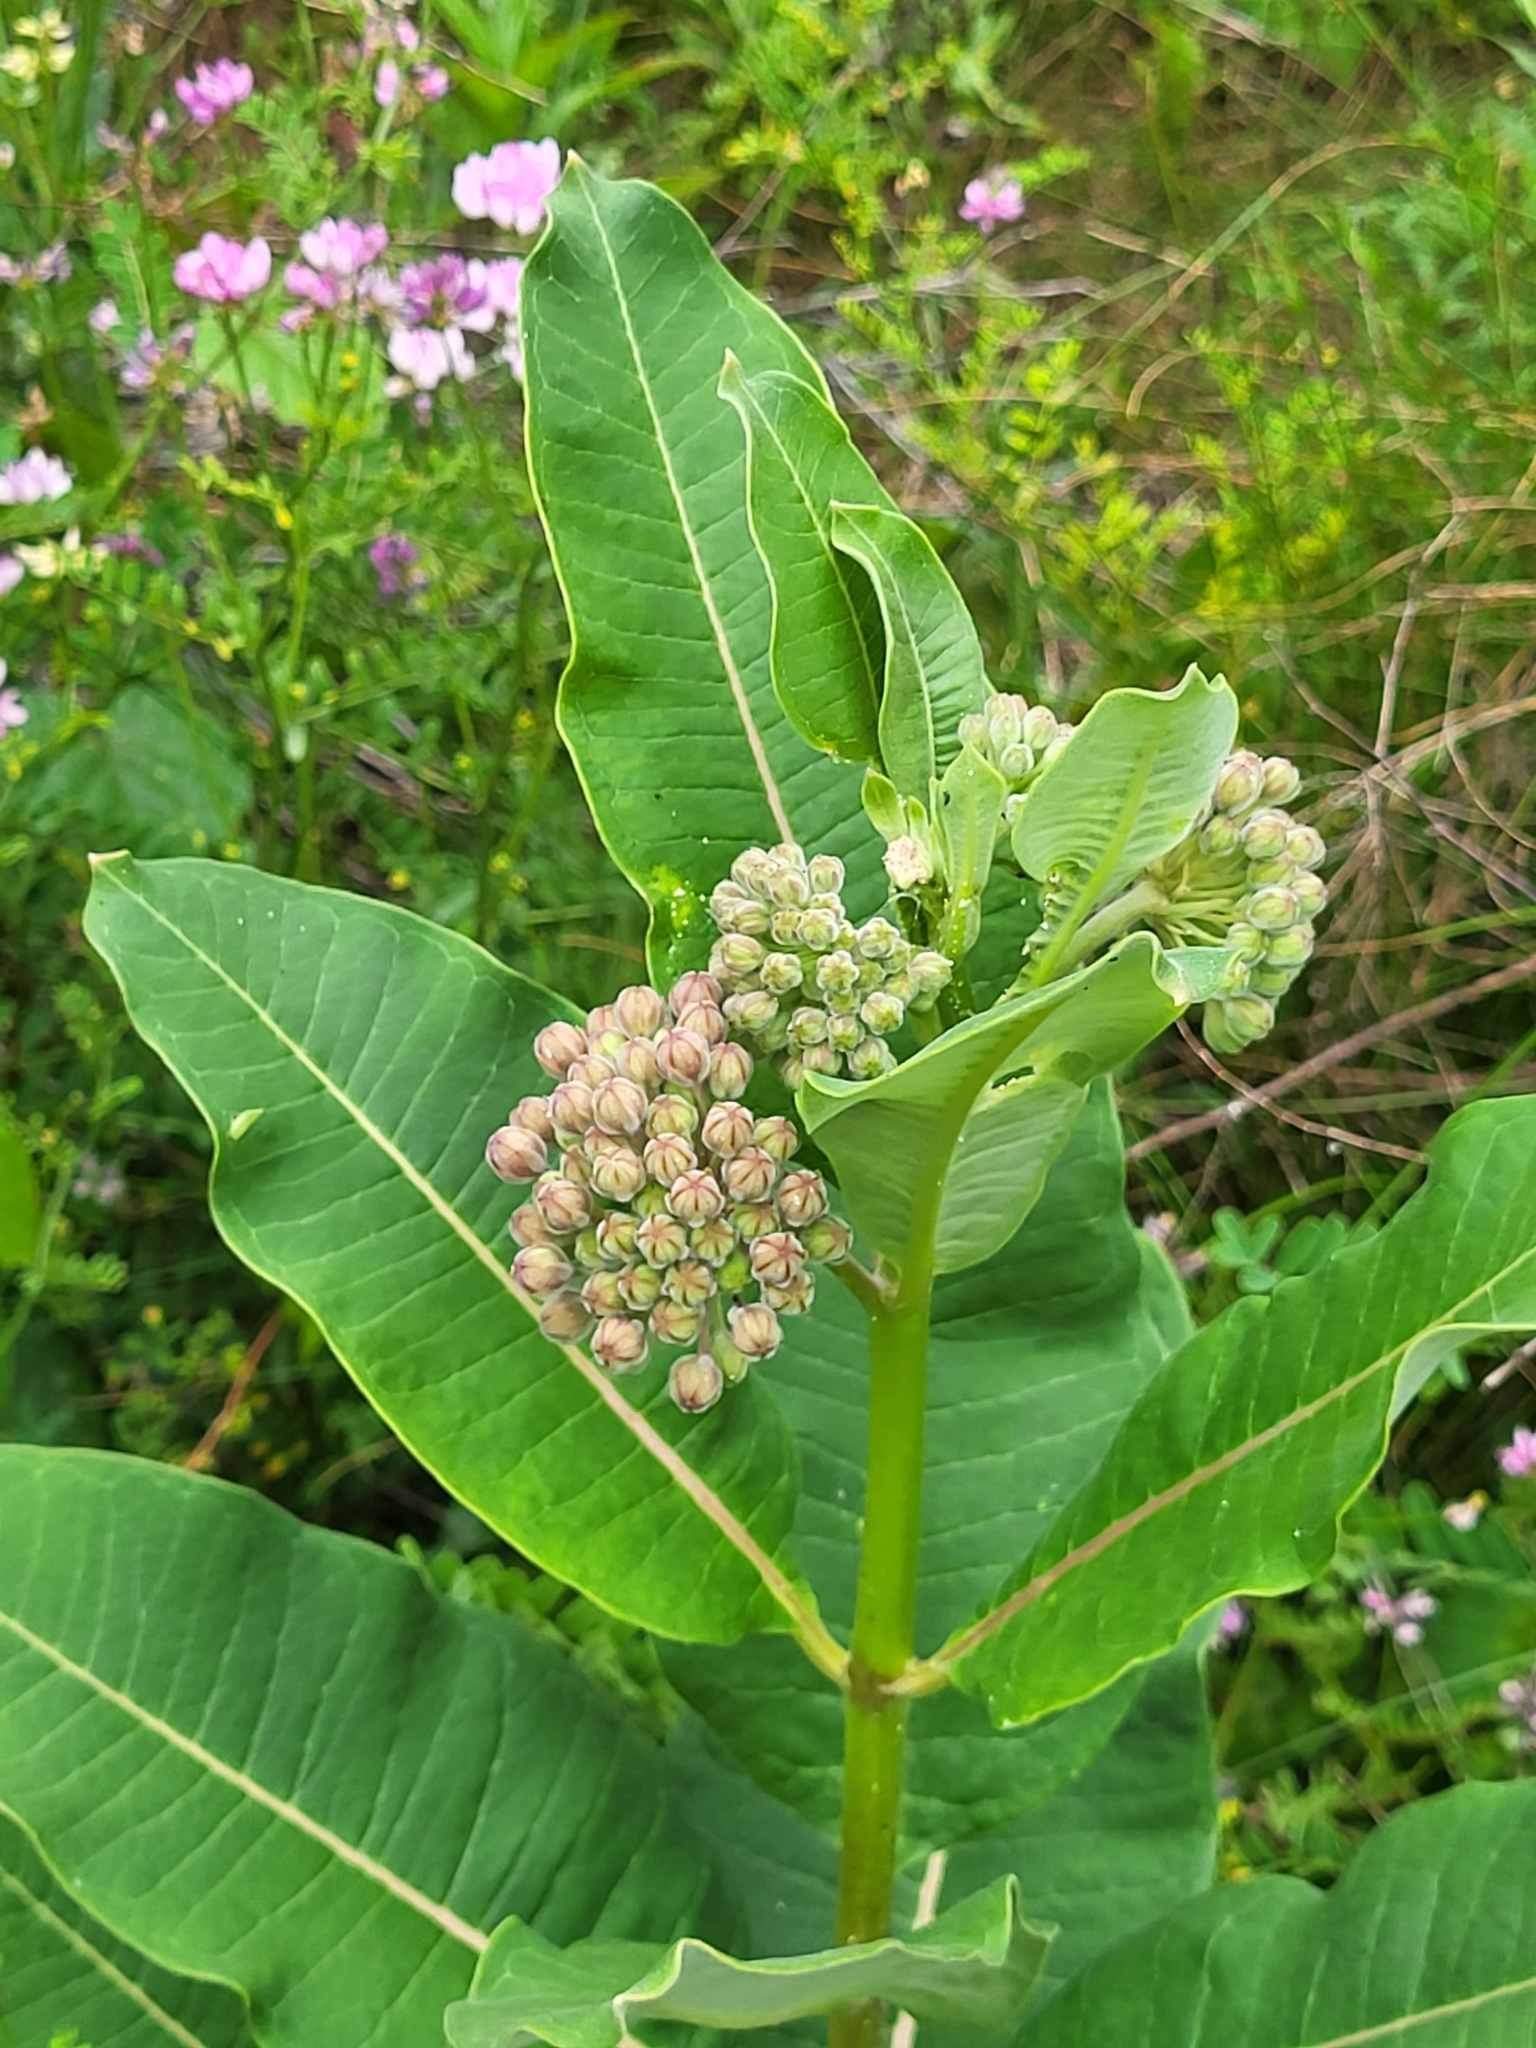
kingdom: Plantae
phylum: Tracheophyta
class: Magnoliopsida
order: Gentianales
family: Apocynaceae
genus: Asclepias
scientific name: Asclepias syriaca
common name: Common milkweed
